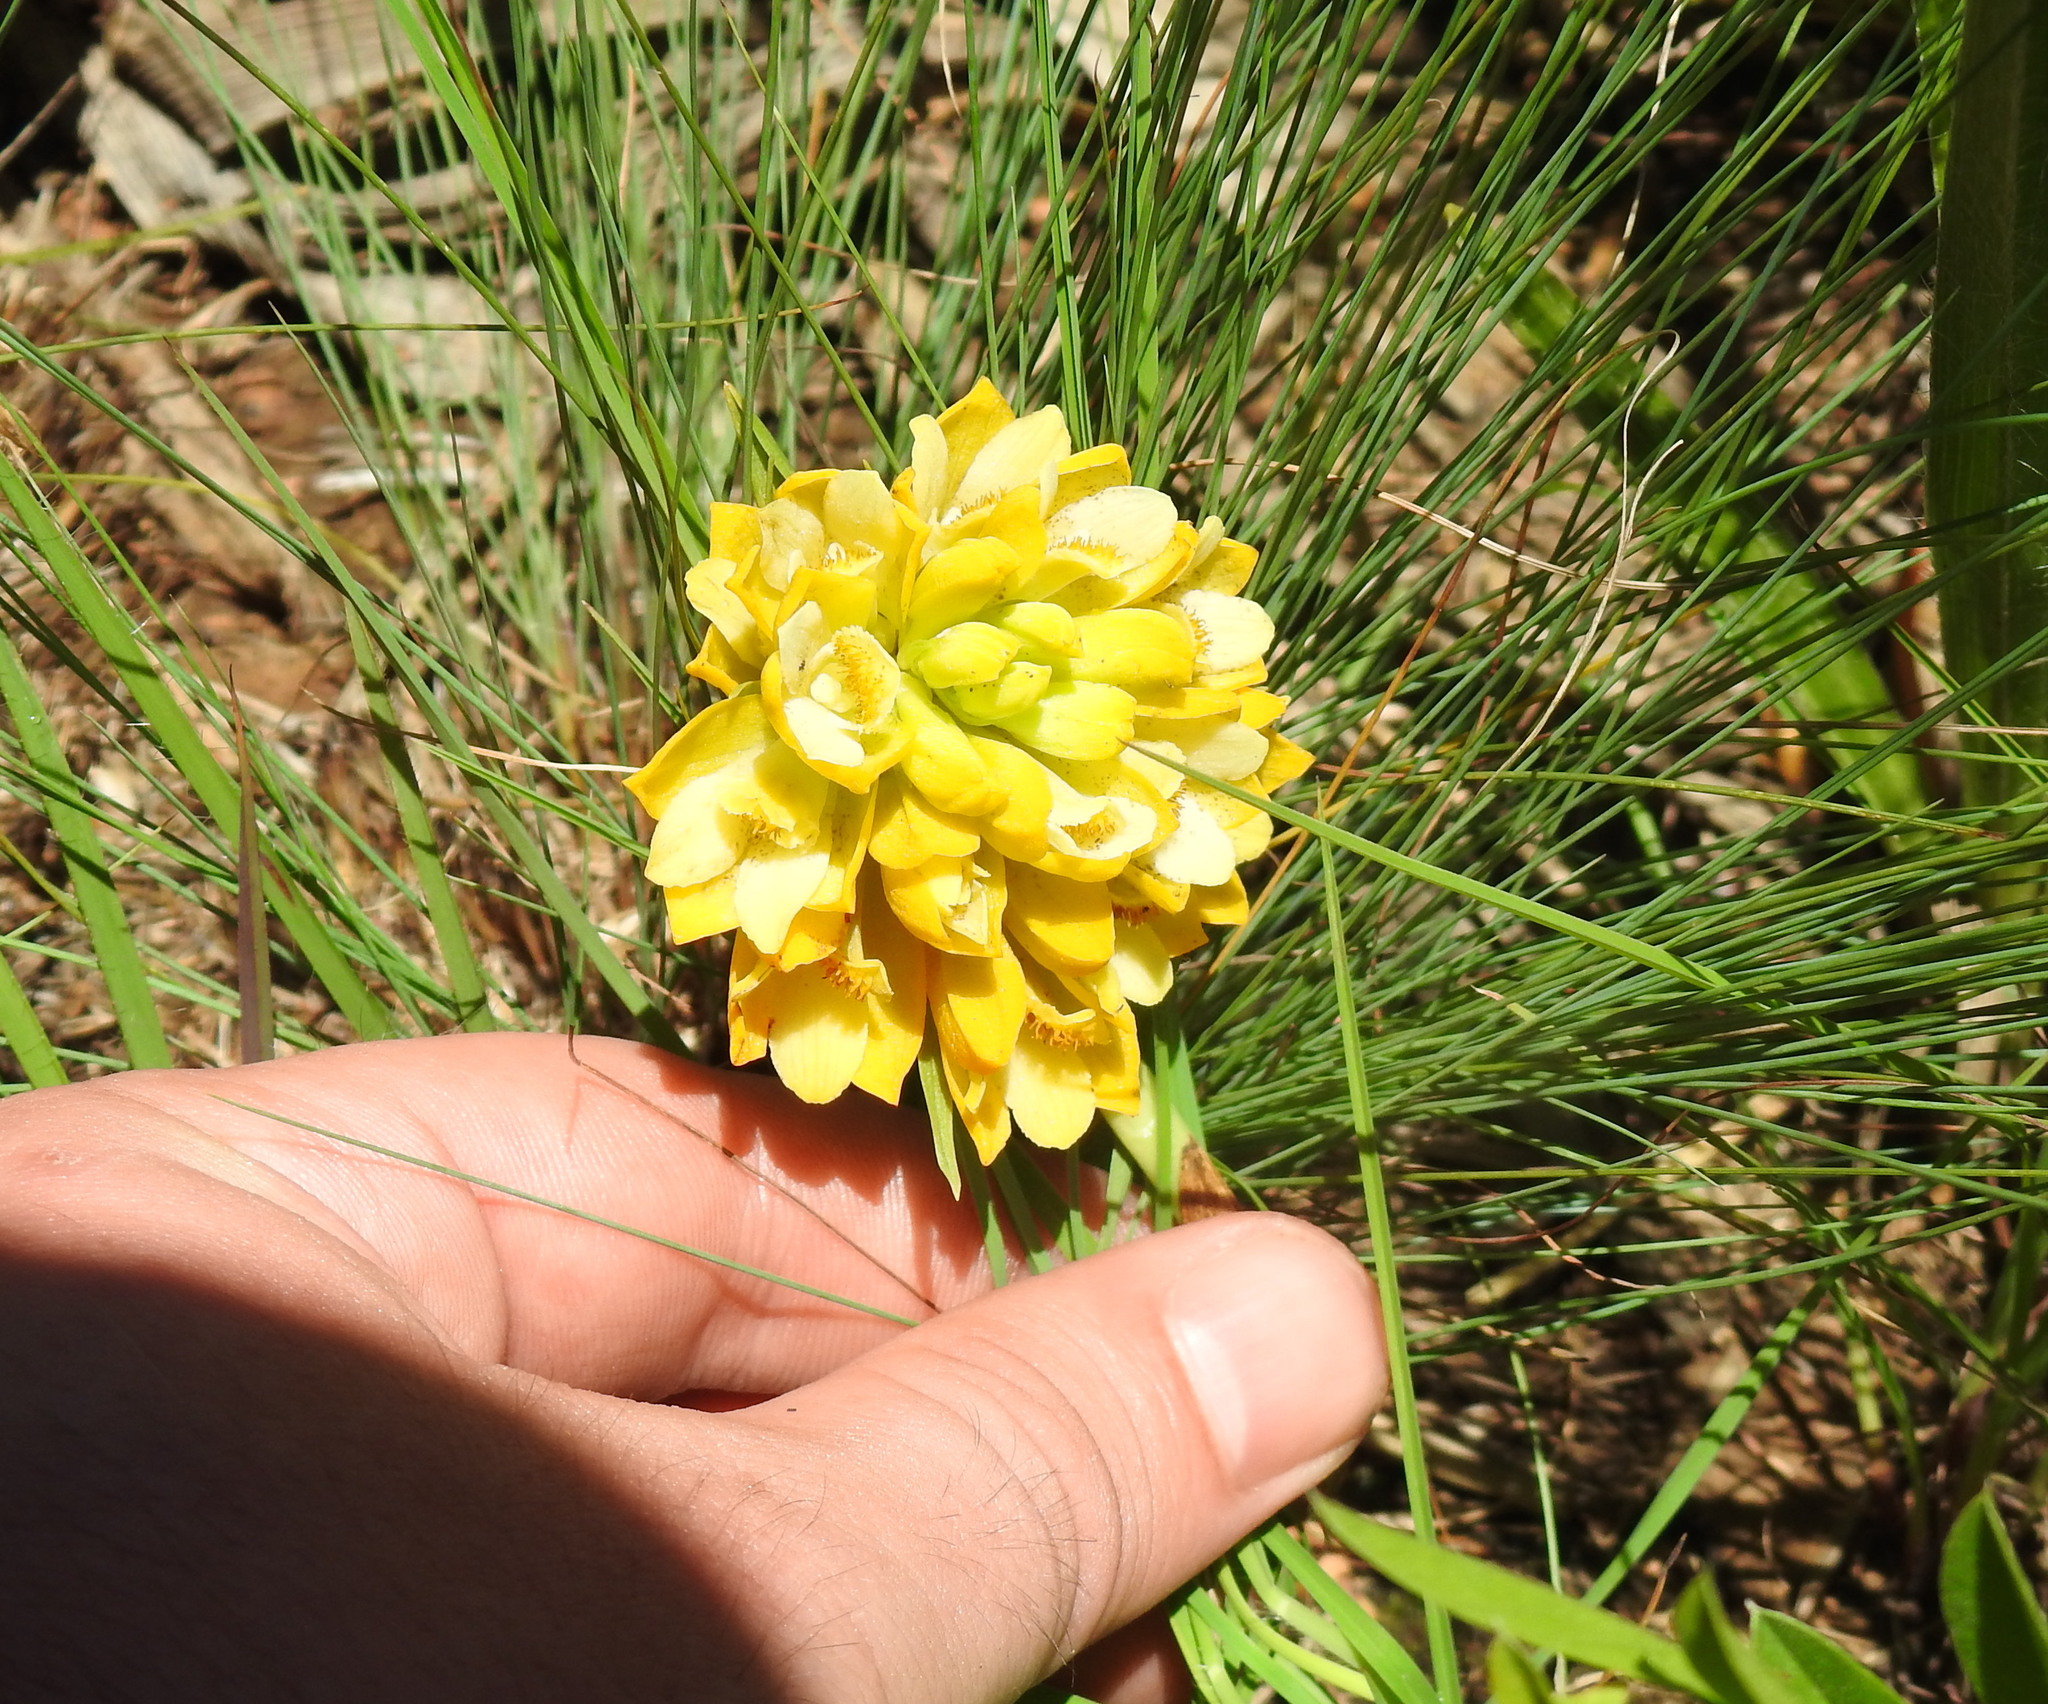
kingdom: Plantae
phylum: Tracheophyta
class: Liliopsida
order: Asparagales
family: Orchidaceae
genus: Eulophia
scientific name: Eulophia leontoglossa
